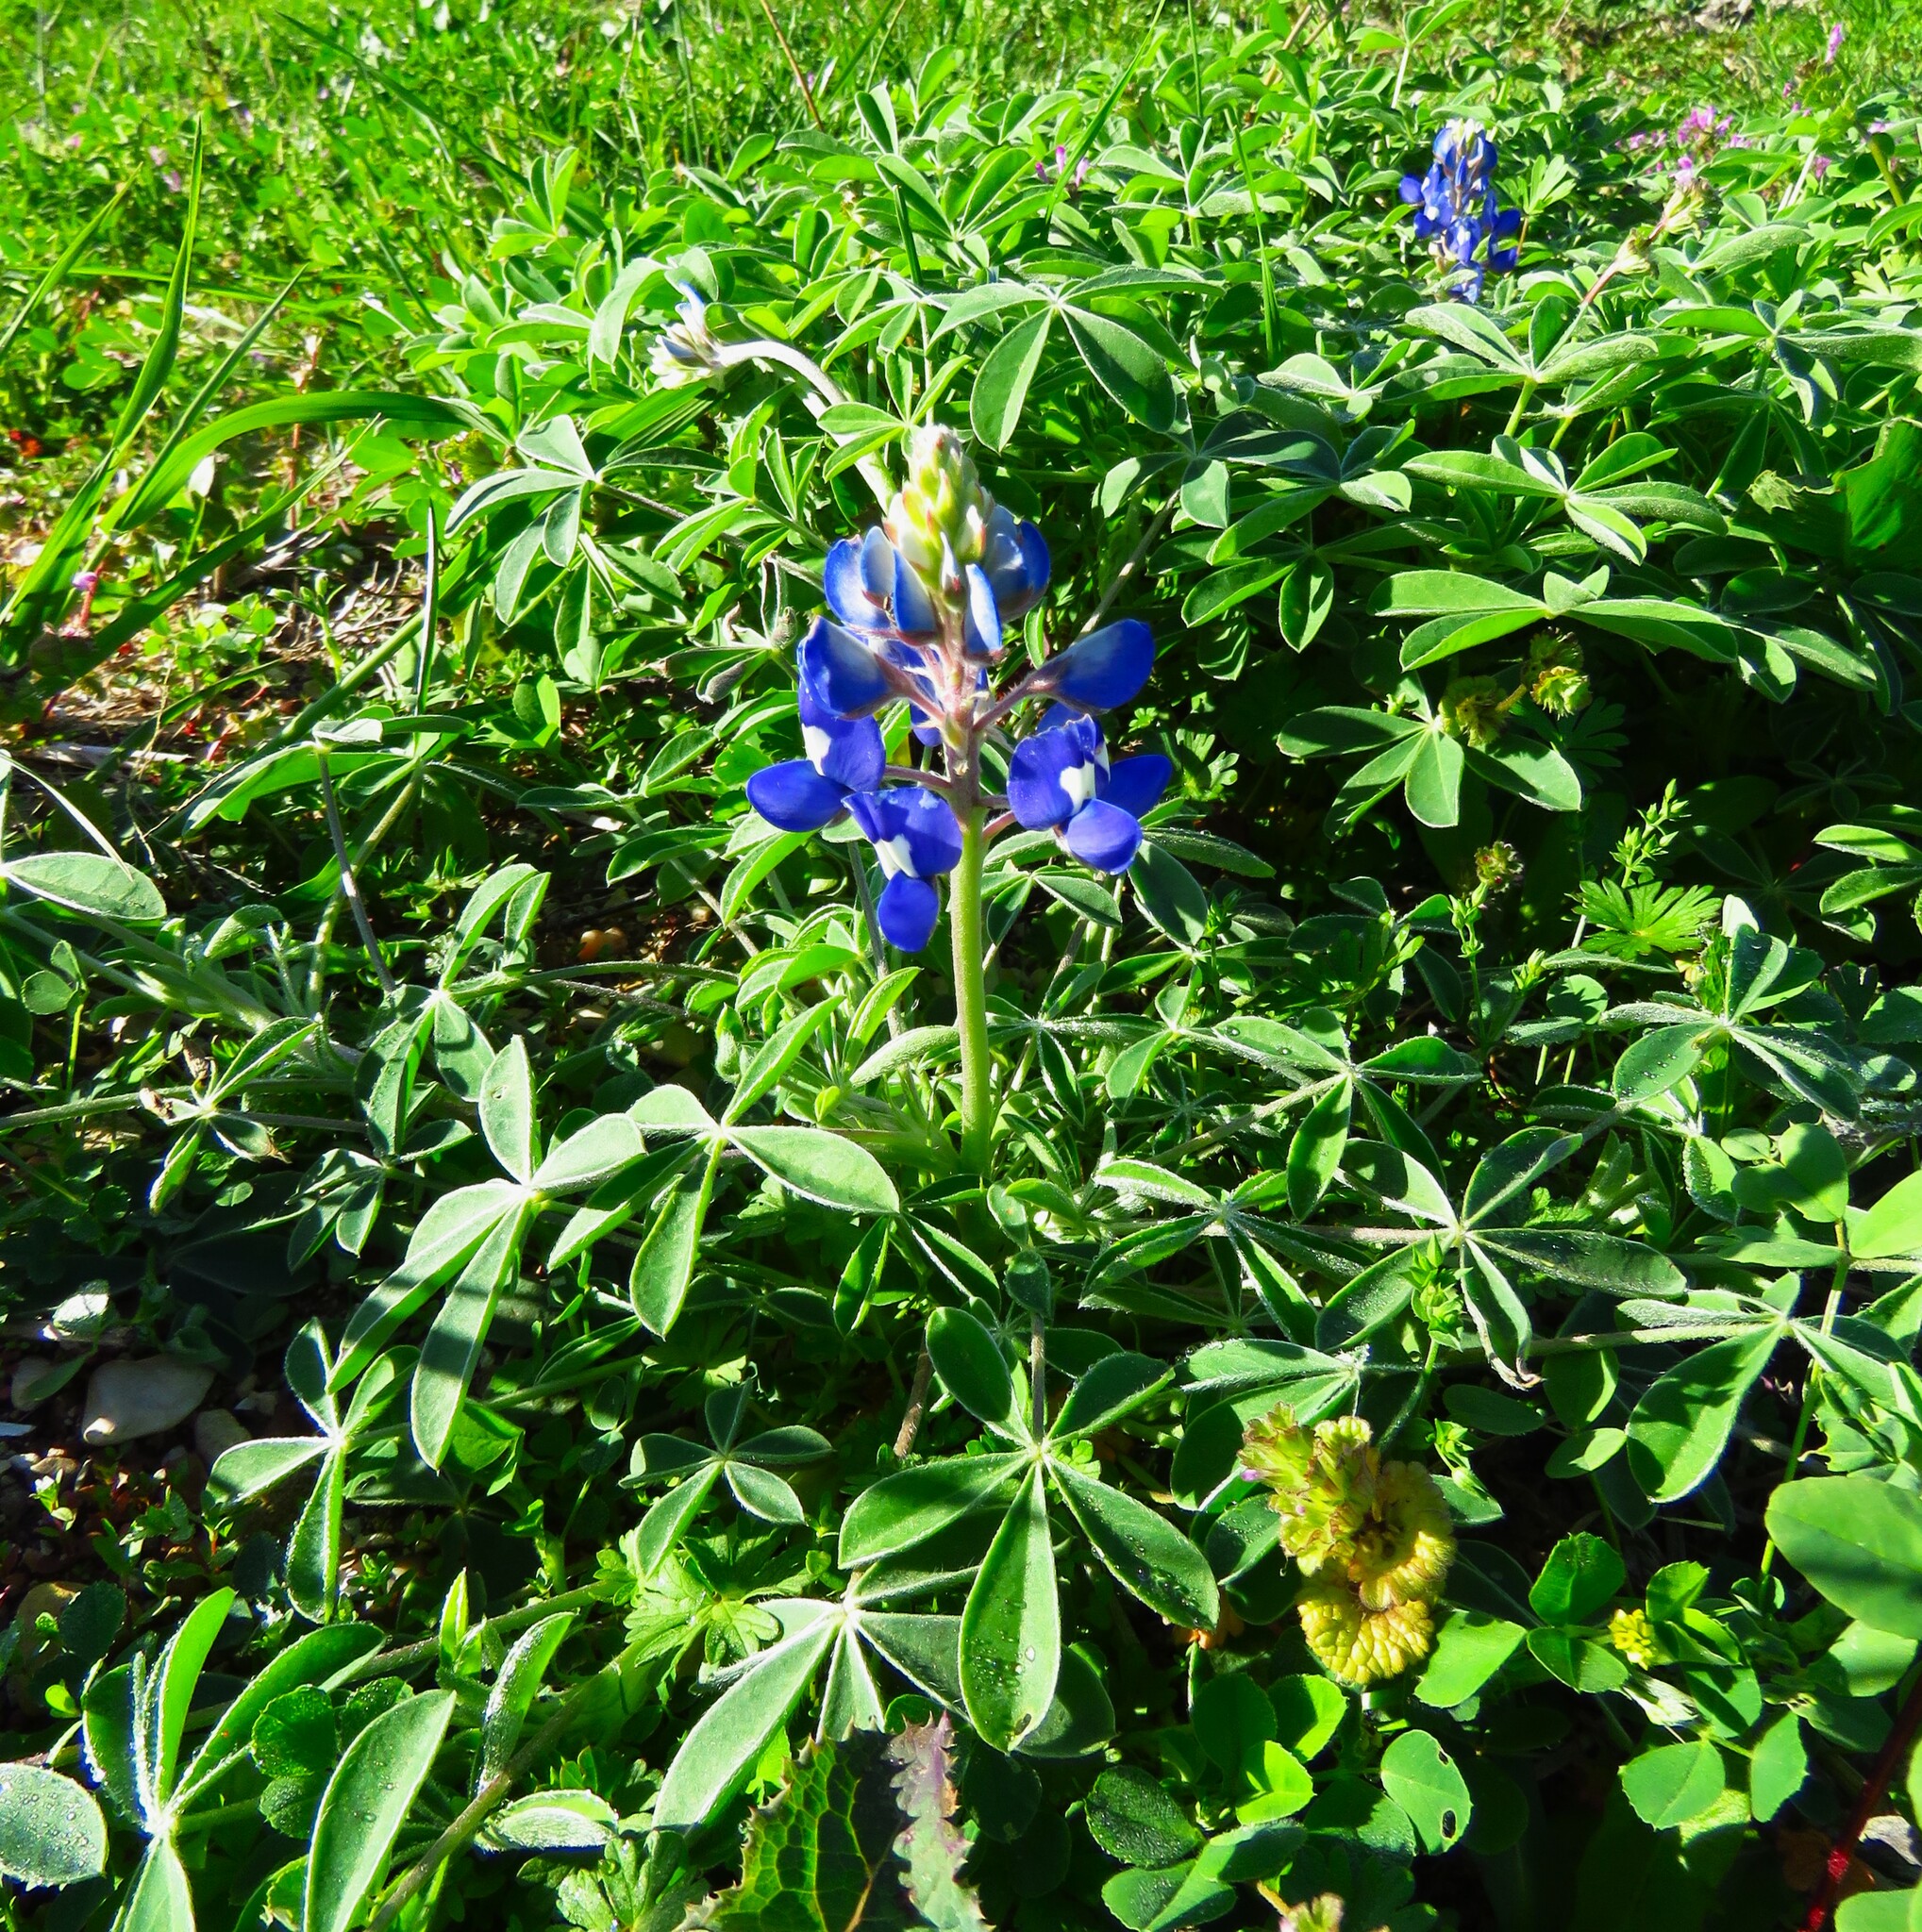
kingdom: Plantae
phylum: Tracheophyta
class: Magnoliopsida
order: Fabales
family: Fabaceae
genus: Lupinus
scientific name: Lupinus texensis
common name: Texas bluebonnet
